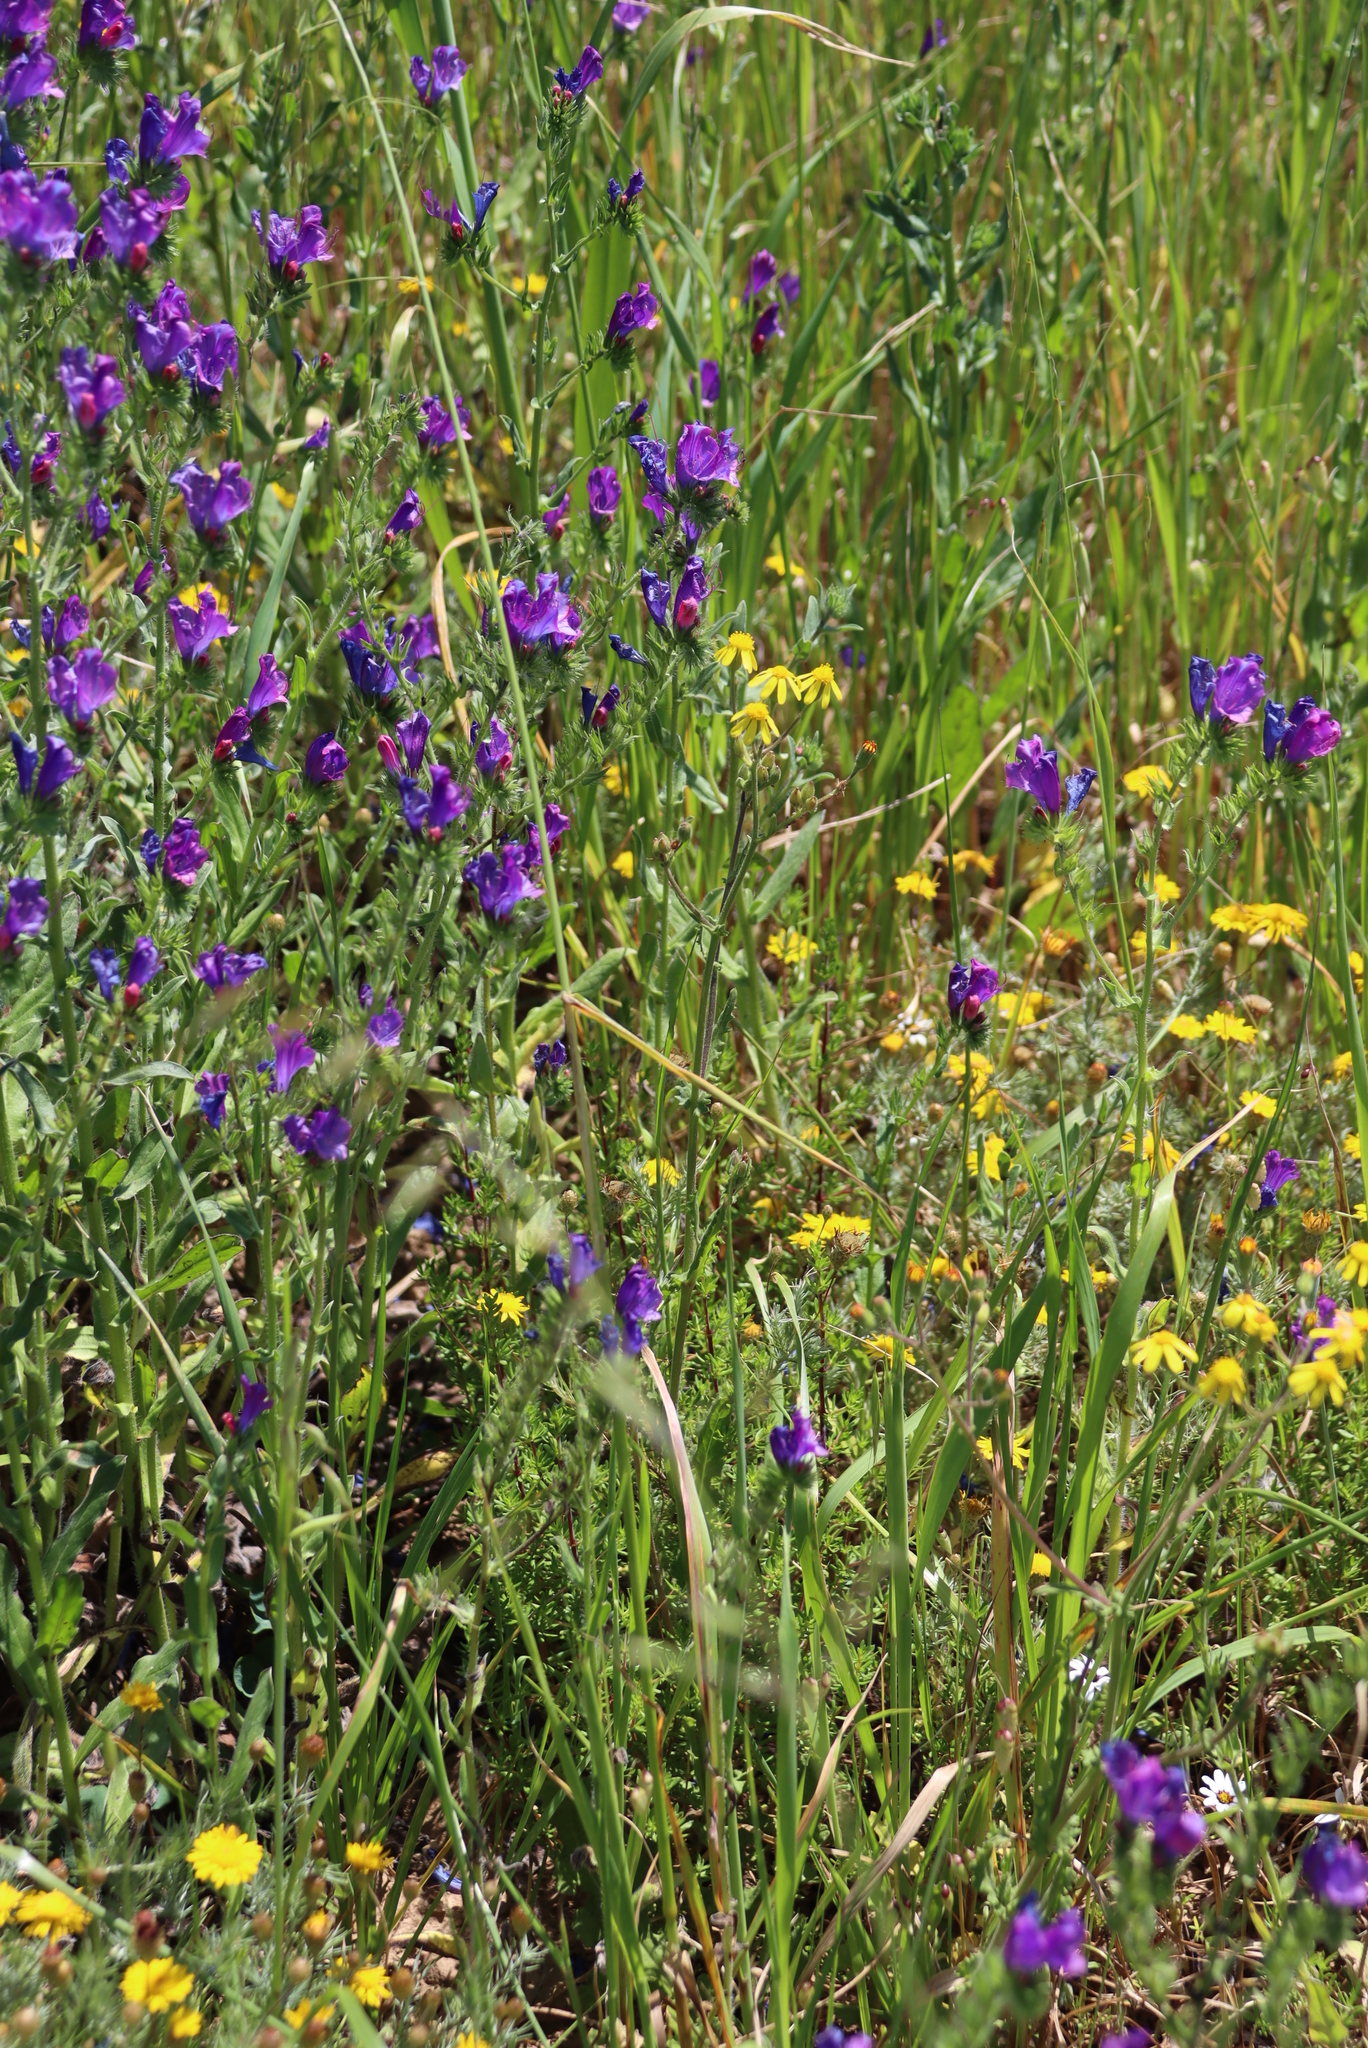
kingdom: Plantae
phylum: Tracheophyta
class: Magnoliopsida
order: Boraginales
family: Boraginaceae
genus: Echium
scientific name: Echium plantagineum
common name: Purple viper's-bugloss
